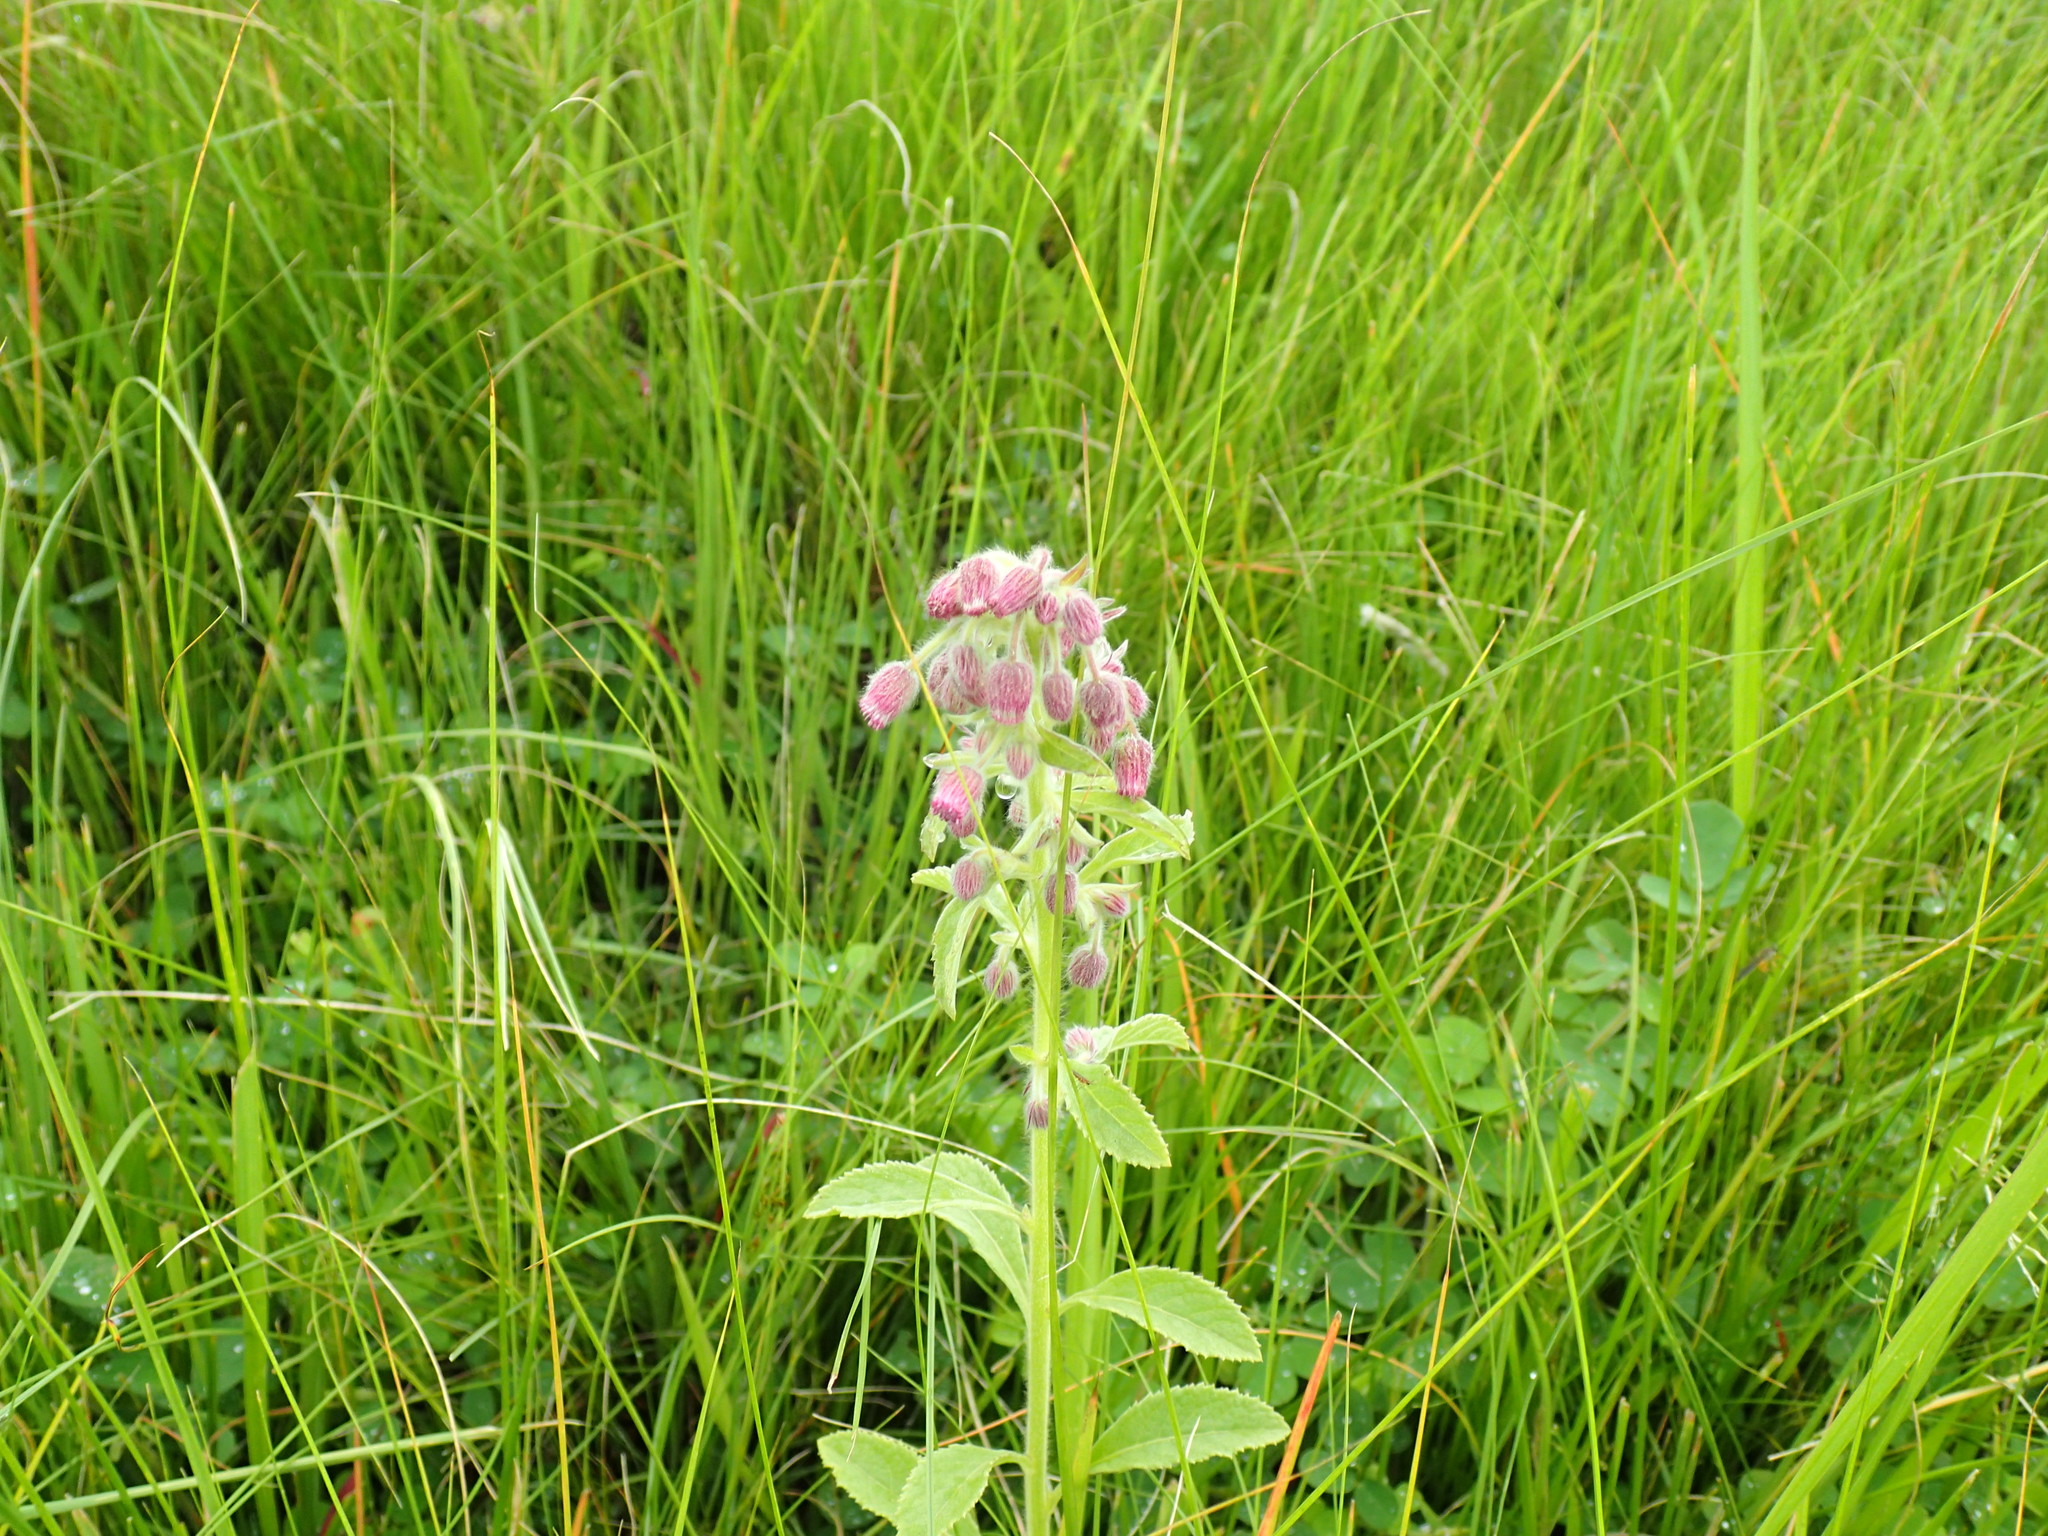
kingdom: Plantae
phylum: Tracheophyta
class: Magnoliopsida
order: Asterales
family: Asteraceae
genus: Blumea
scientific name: Blumea axillaris
